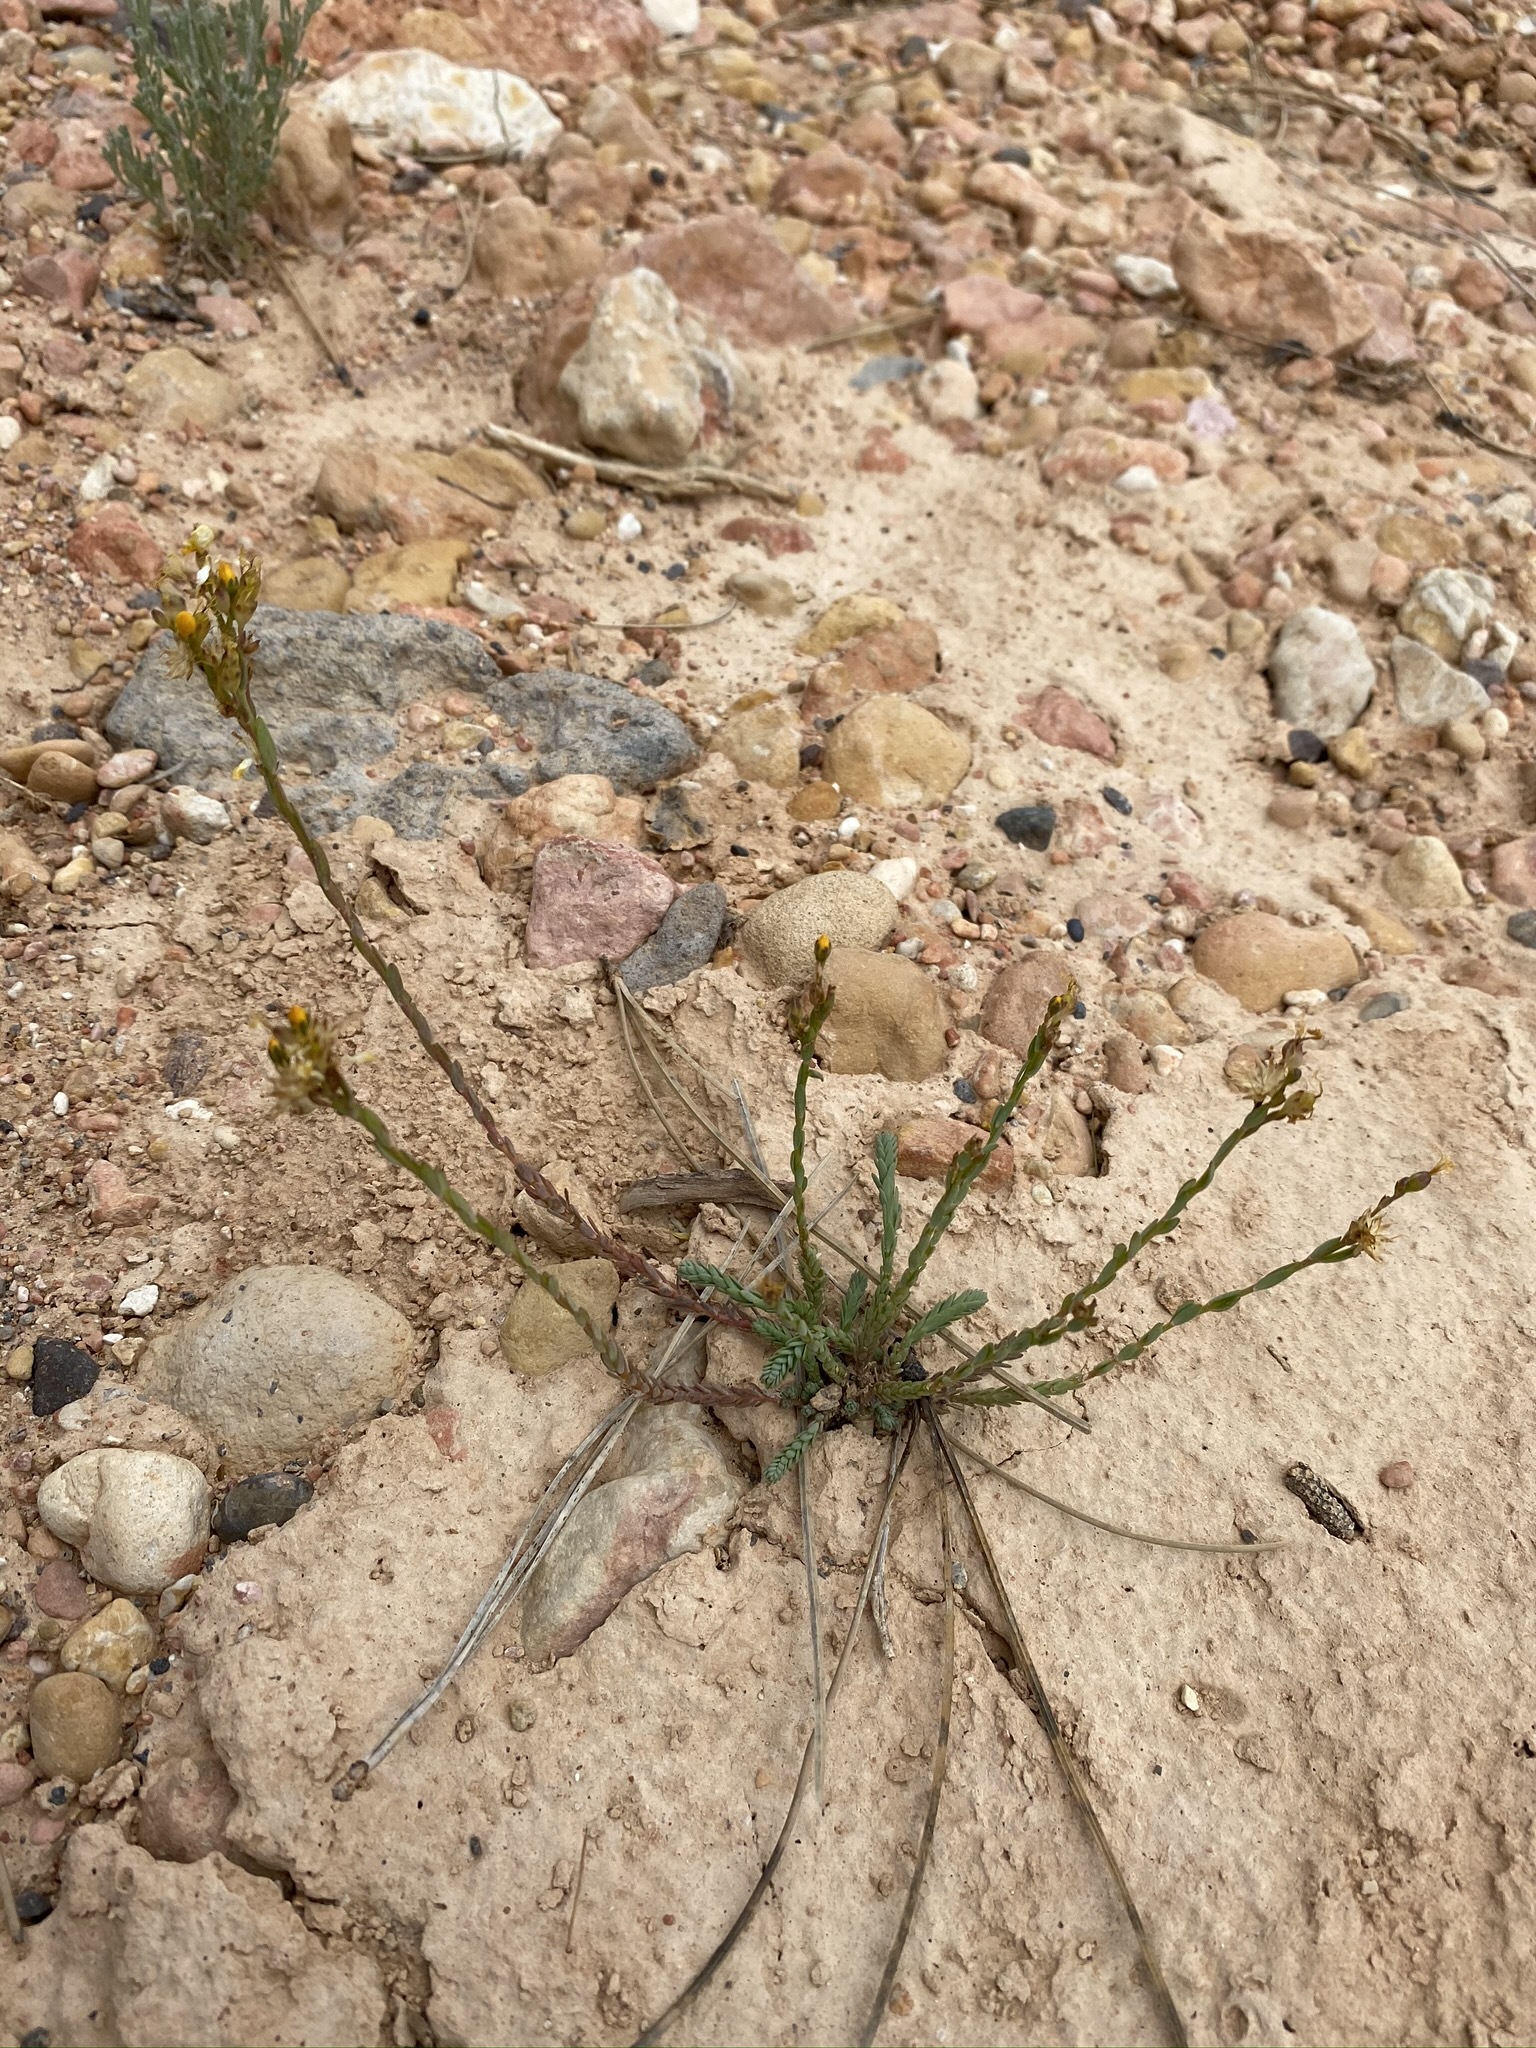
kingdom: Plantae
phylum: Tracheophyta
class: Magnoliopsida
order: Malpighiales
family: Linaceae
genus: Linum
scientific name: Linum kingii
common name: King's yellow flax
